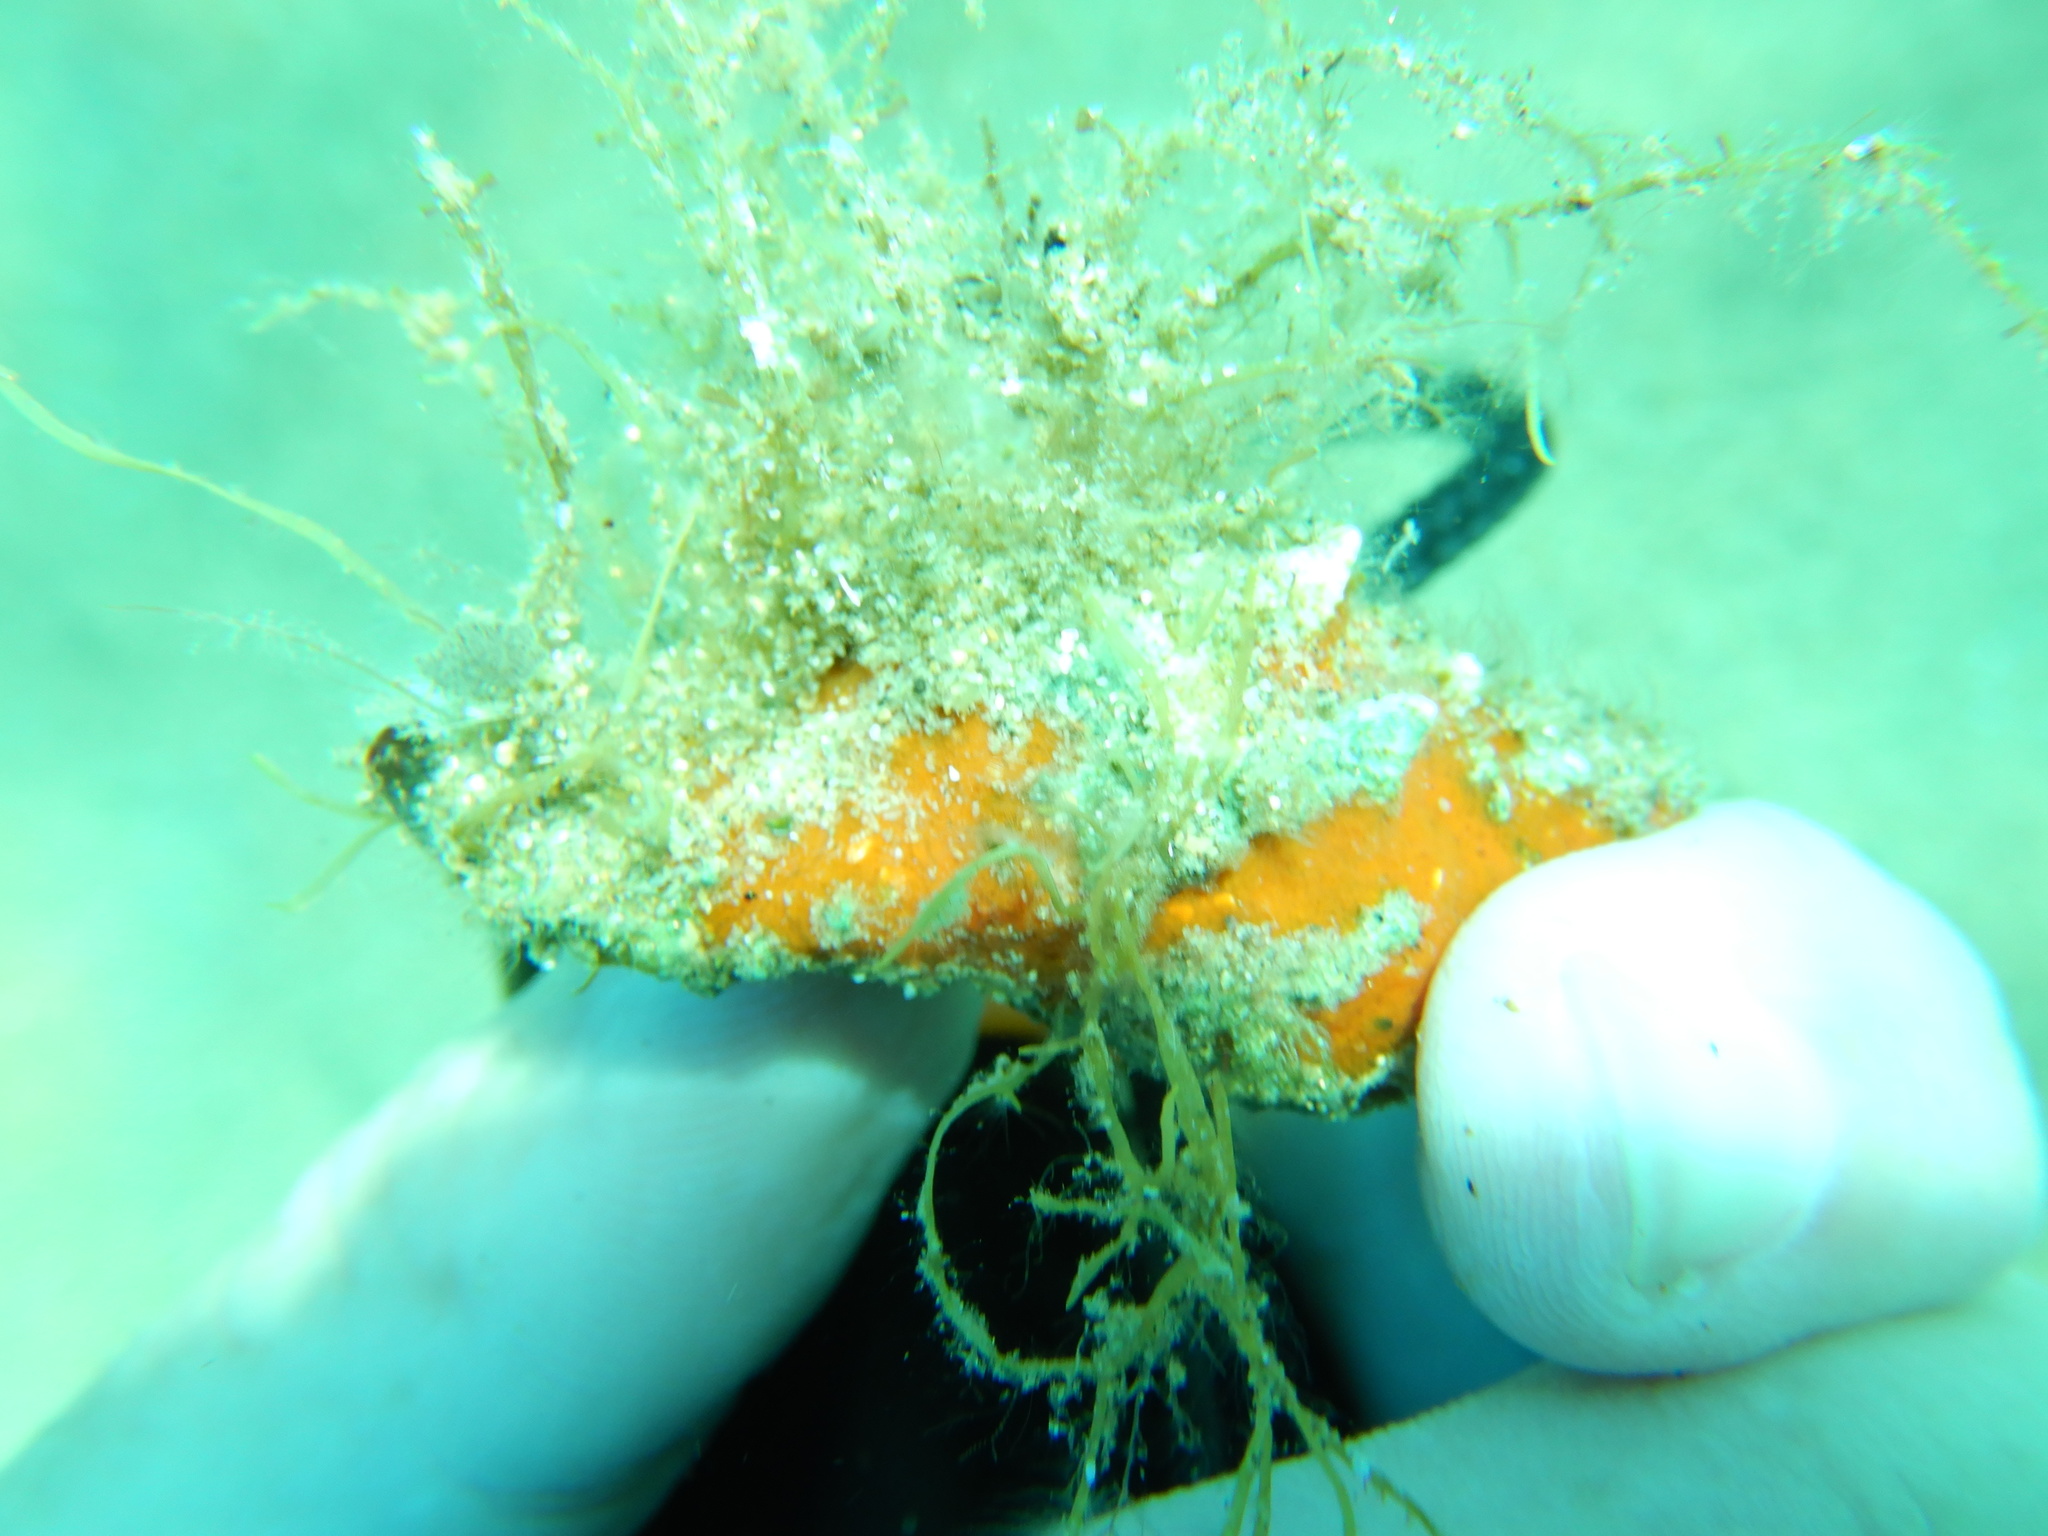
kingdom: Animalia
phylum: Mollusca
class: Gastropoda
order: Neogastropoda
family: Muricidae
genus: Hexaplex
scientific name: Hexaplex trunculus
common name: Banded dye-murex
